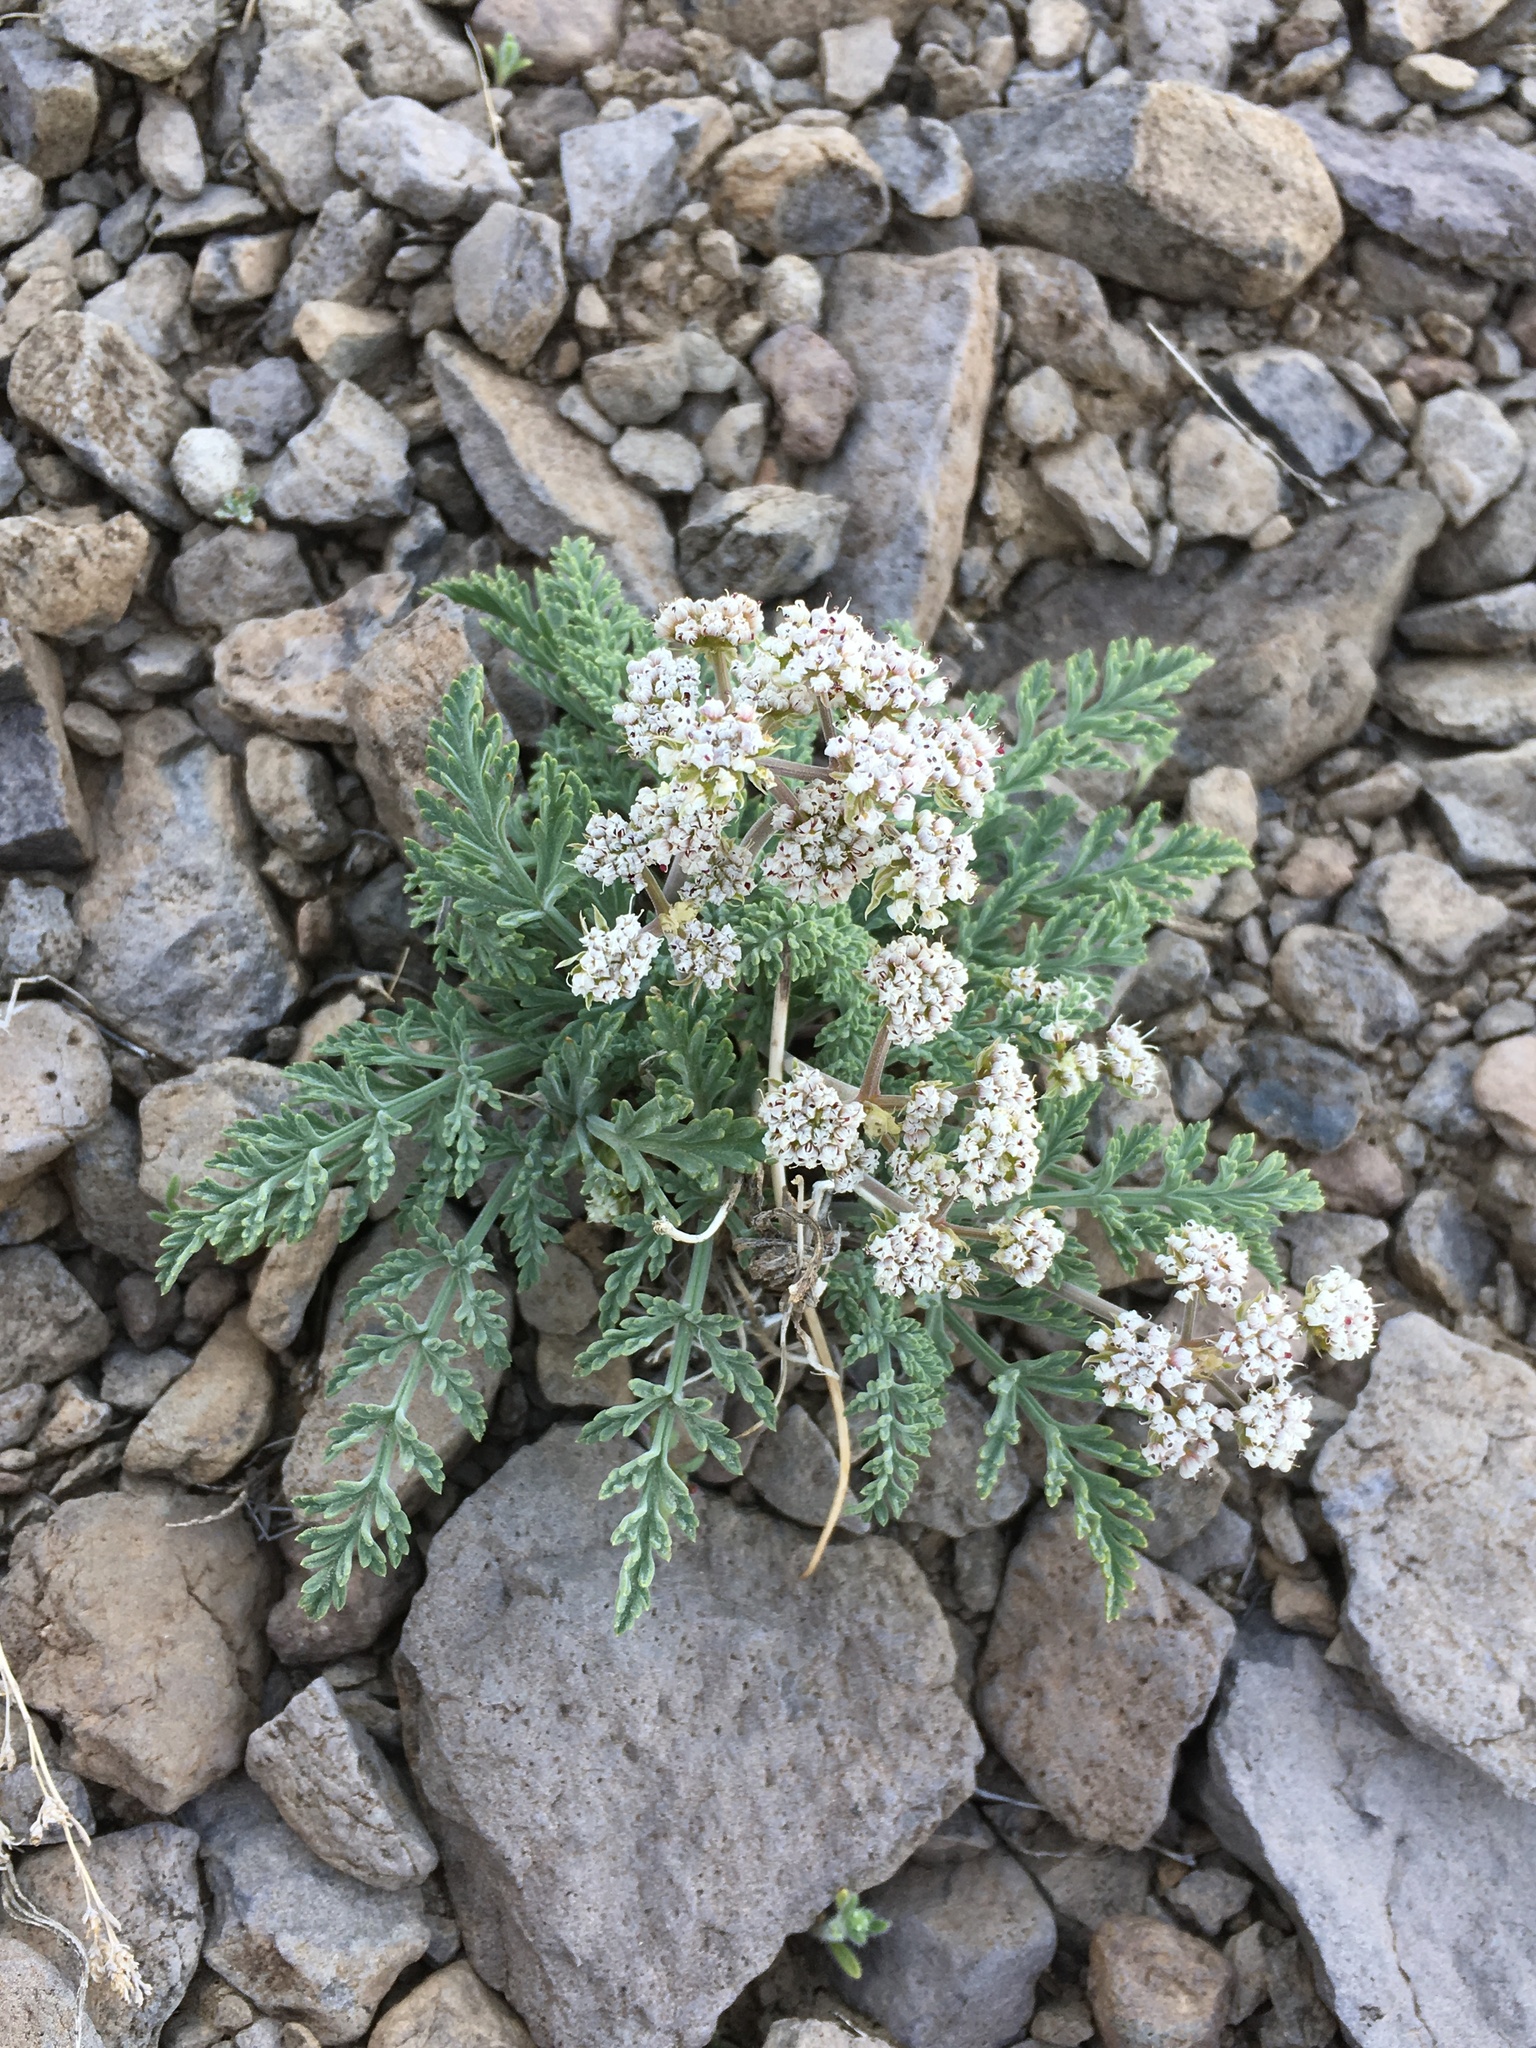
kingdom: Plantae
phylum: Tracheophyta
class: Magnoliopsida
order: Apiales
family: Apiaceae
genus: Lomatium
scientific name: Lomatium nevadense
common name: Nevada lomatium
